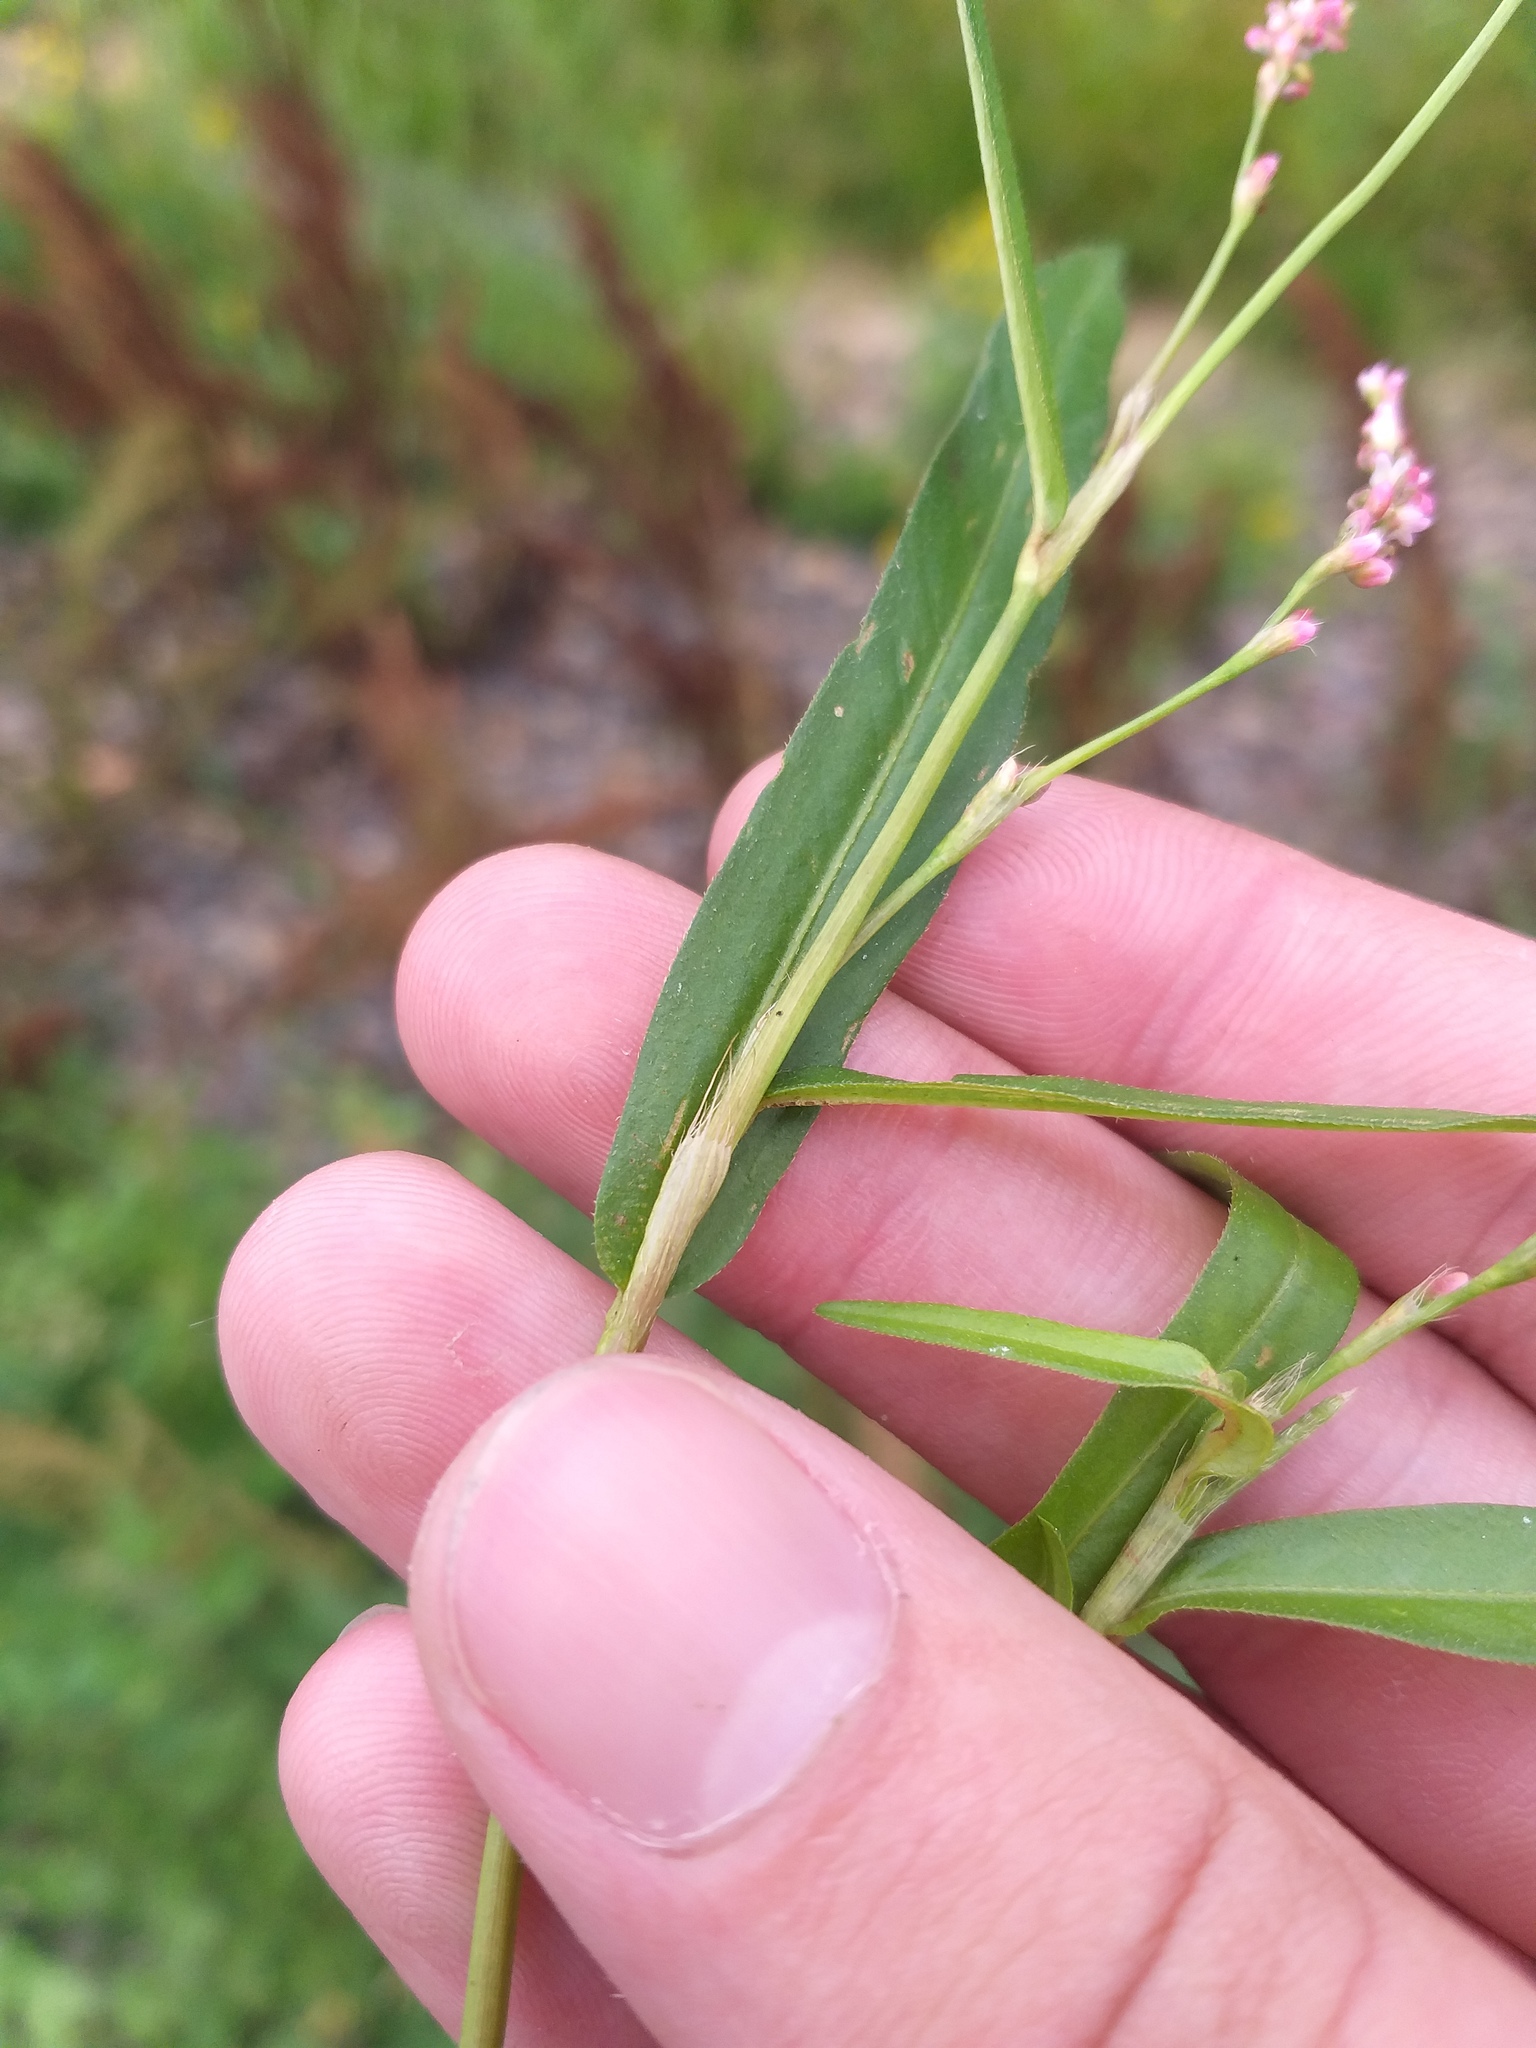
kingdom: Plantae
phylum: Tracheophyta
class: Magnoliopsida
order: Caryophyllales
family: Polygonaceae
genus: Persicaria
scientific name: Persicaria minor
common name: Small water-pepper
